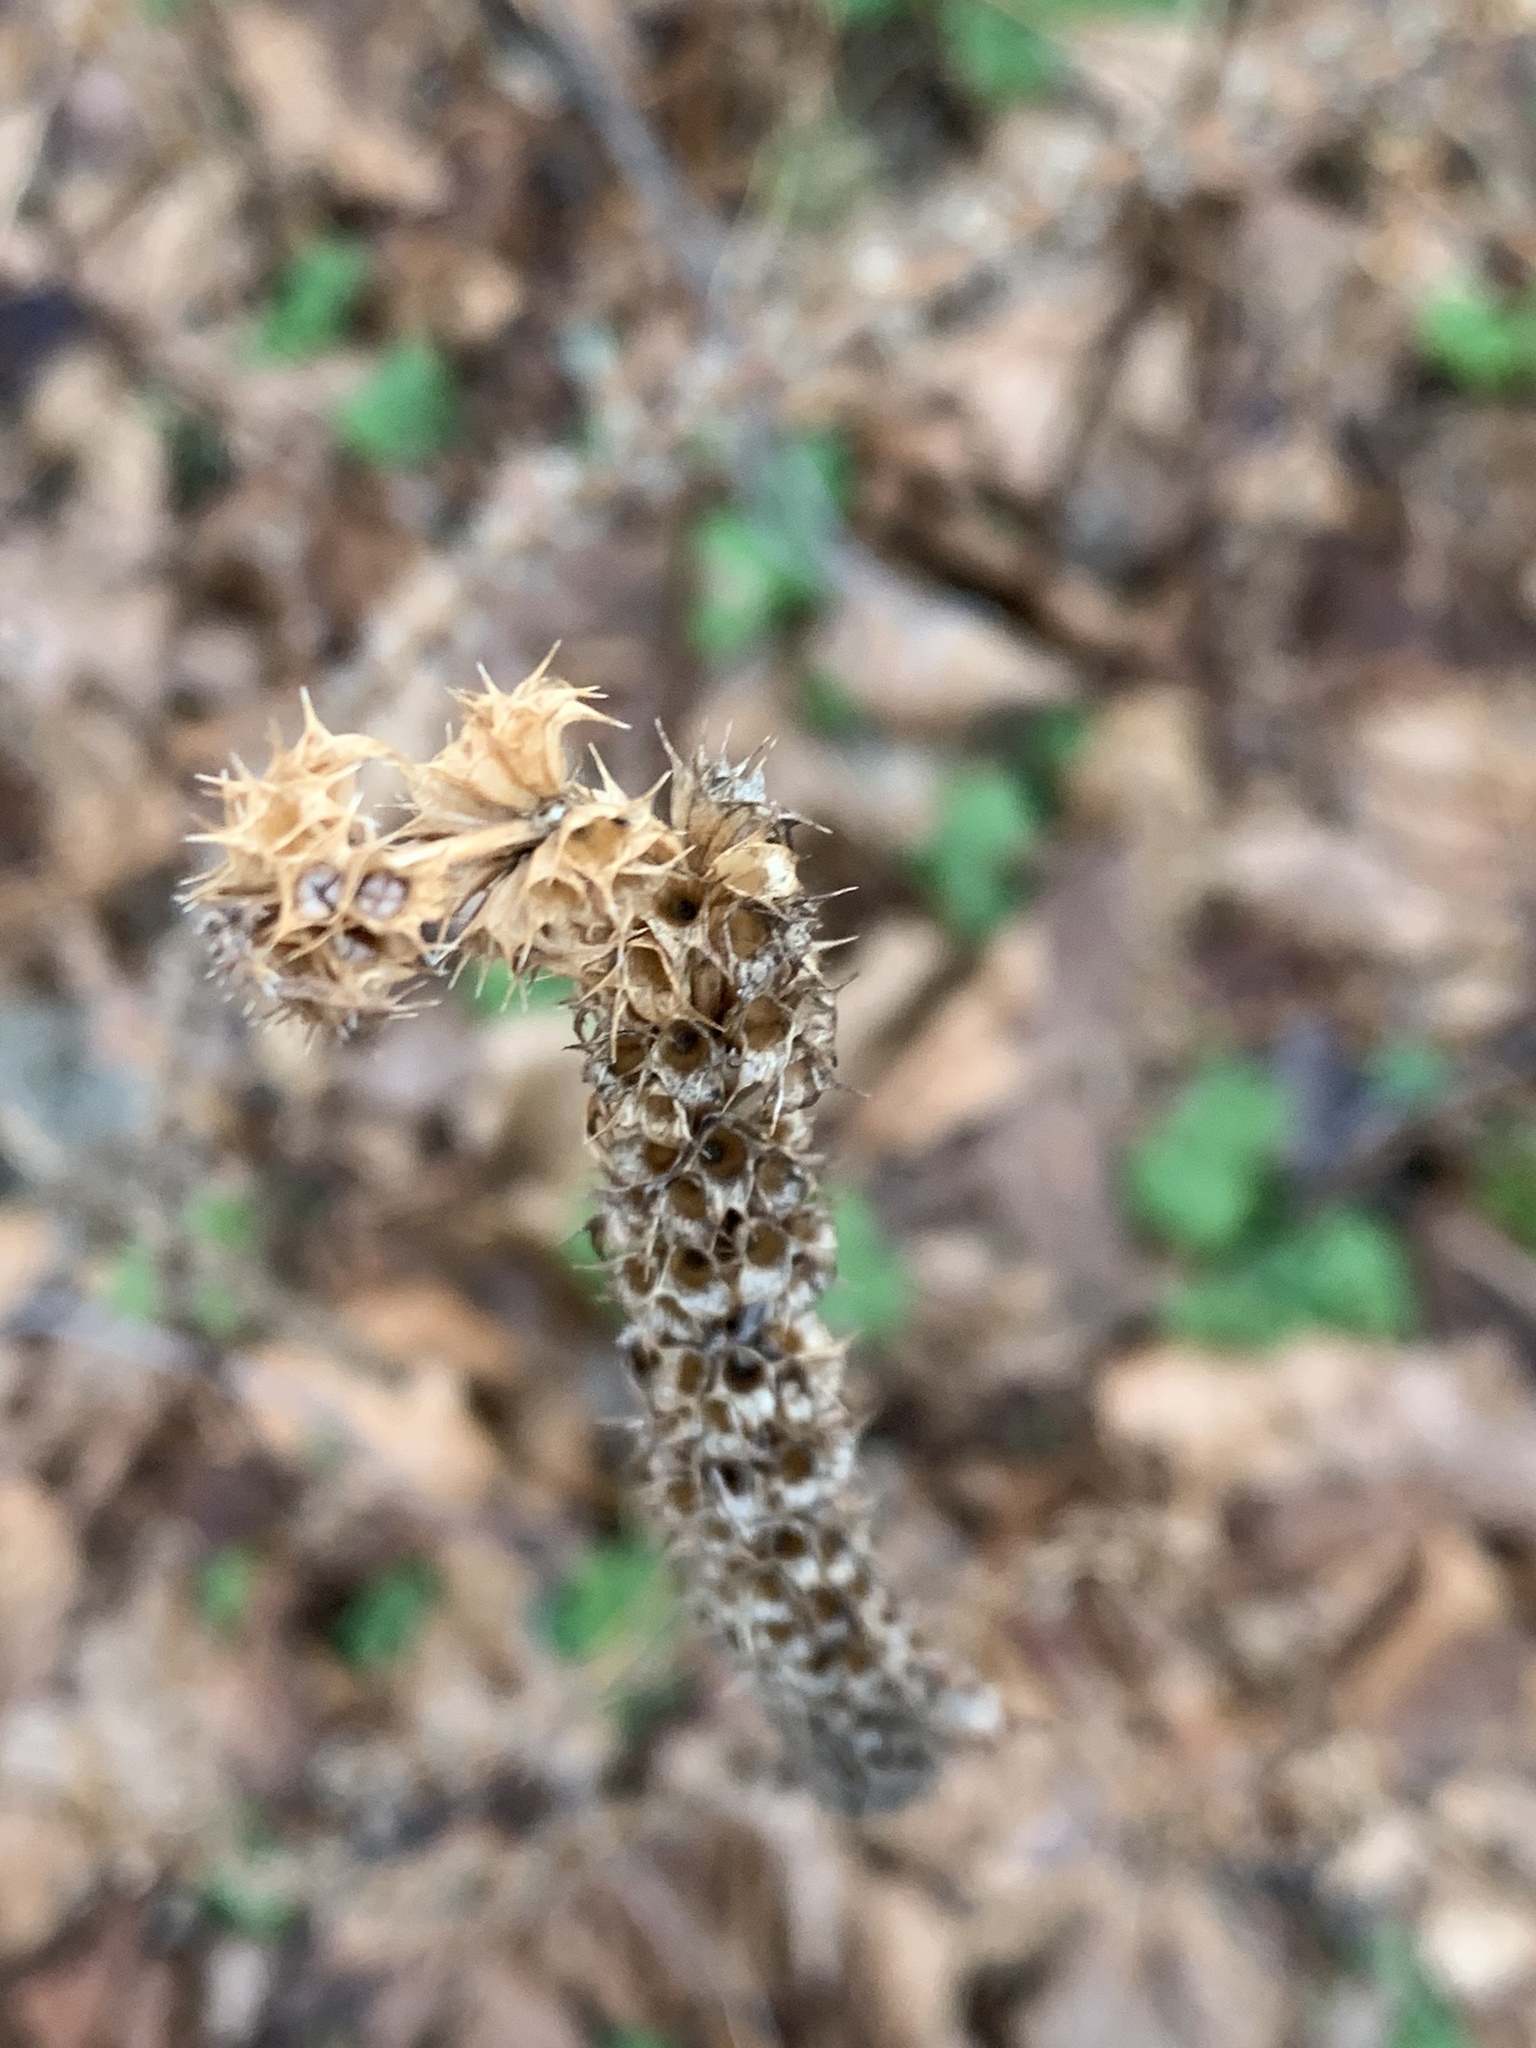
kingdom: Plantae
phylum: Tracheophyta
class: Magnoliopsida
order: Lamiales
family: Lamiaceae
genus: Leonurus
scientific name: Leonurus cardiaca
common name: Motherwort
